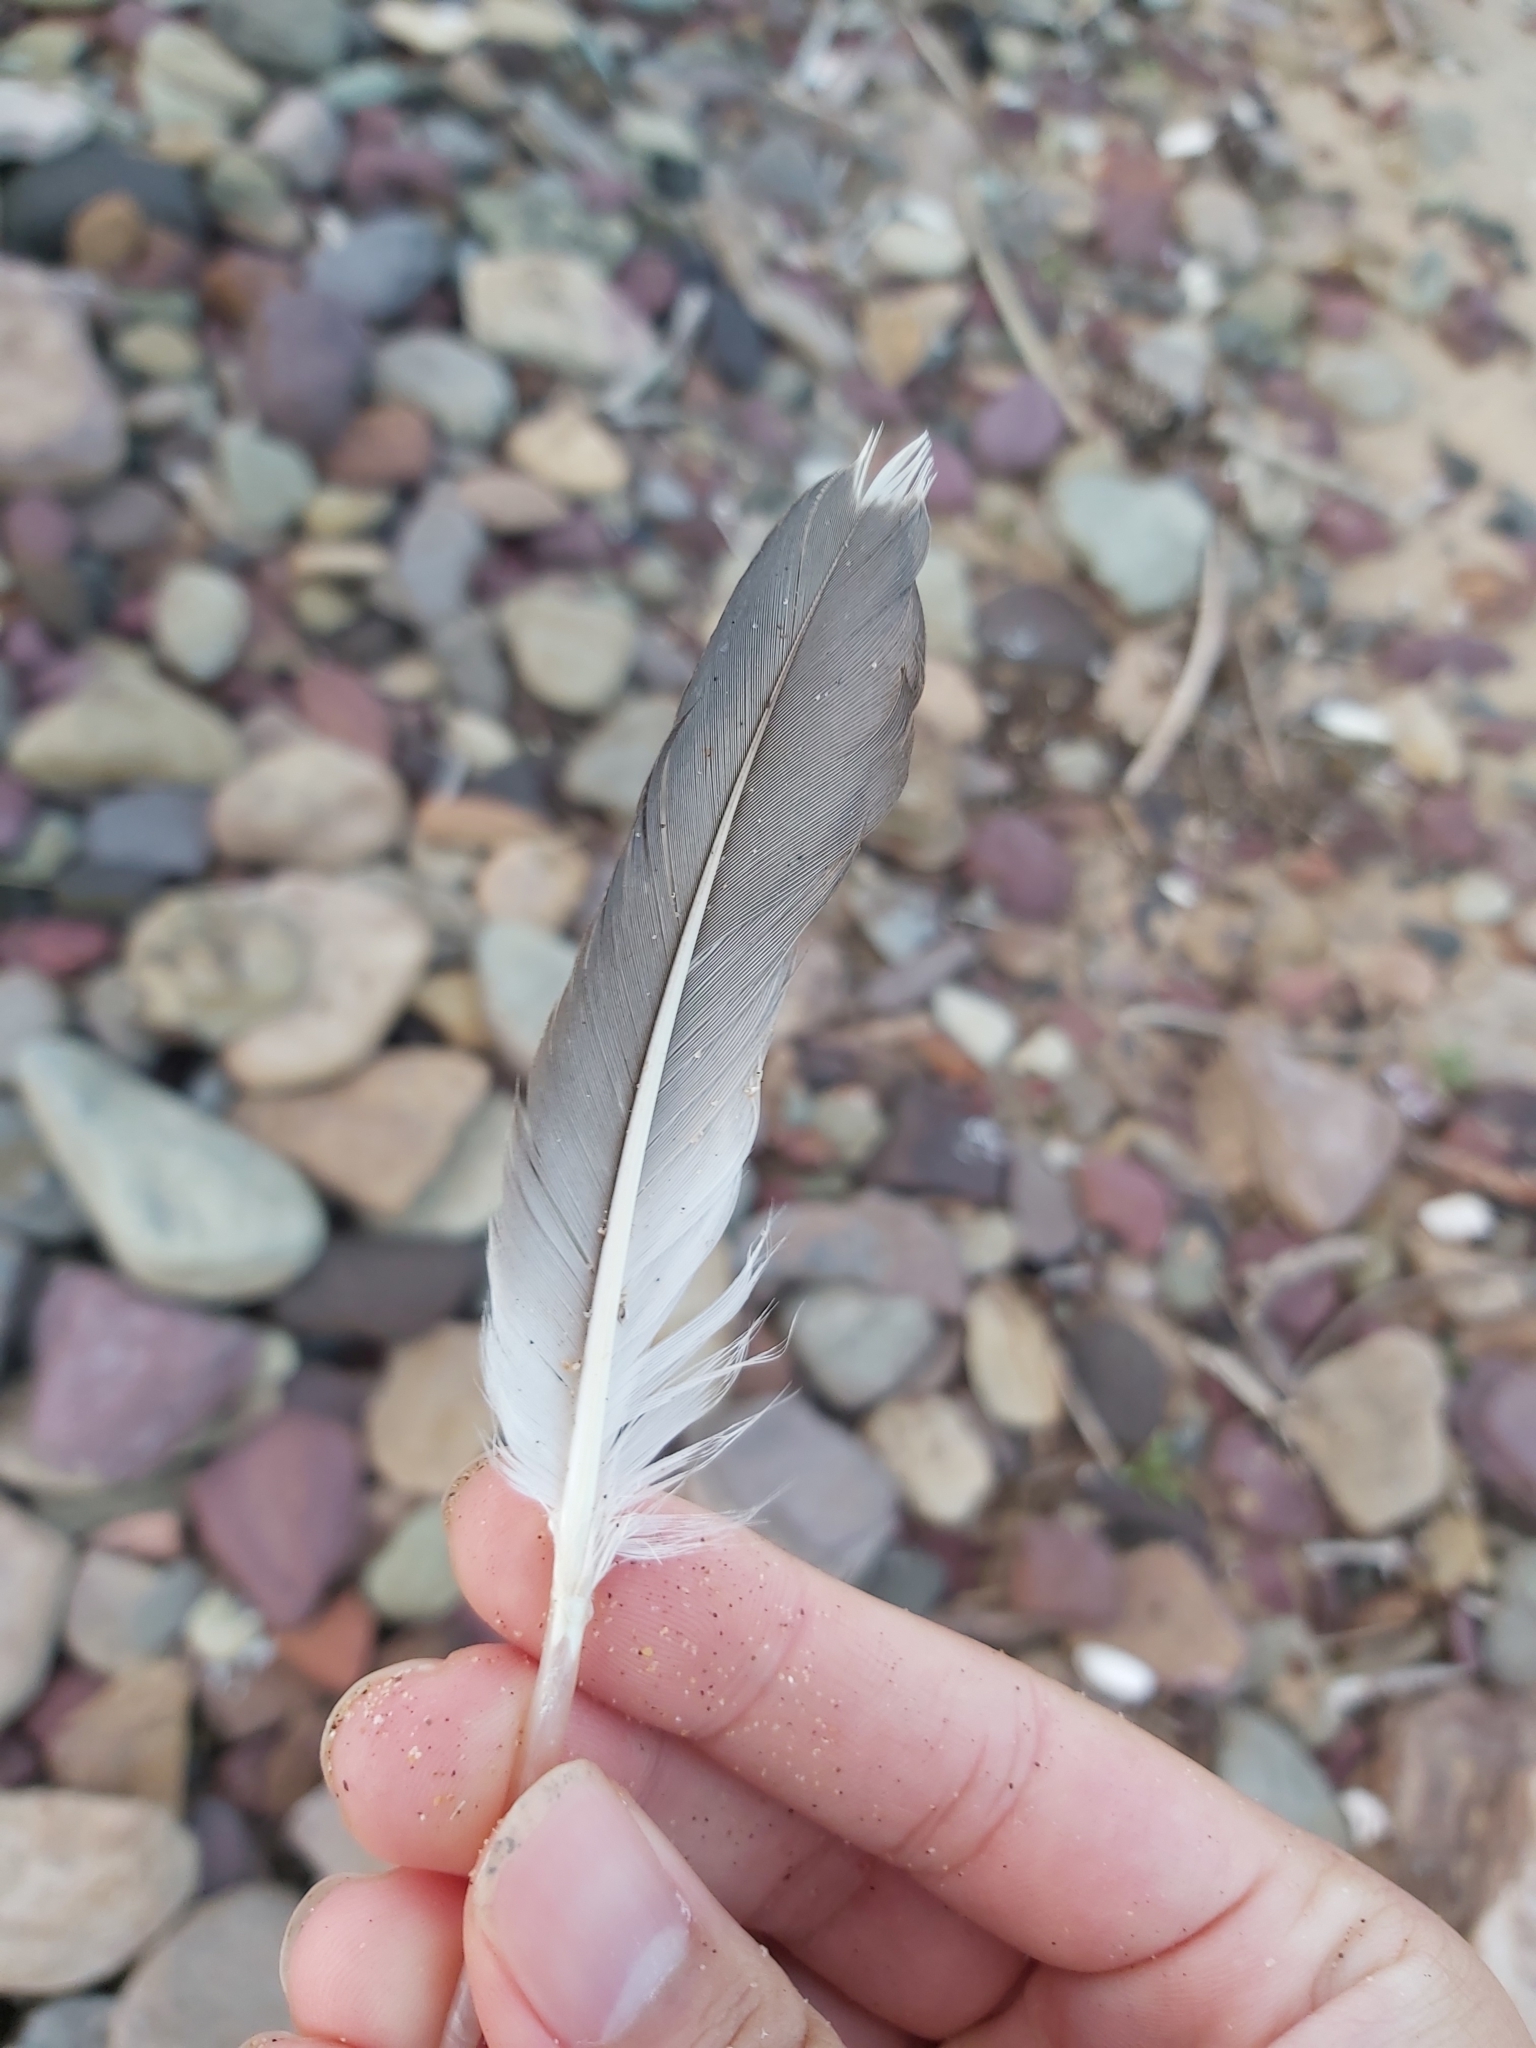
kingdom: Animalia
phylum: Chordata
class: Aves
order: Suliformes
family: Sulidae
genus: Morus
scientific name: Morus serrator
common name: Australasian gannet
